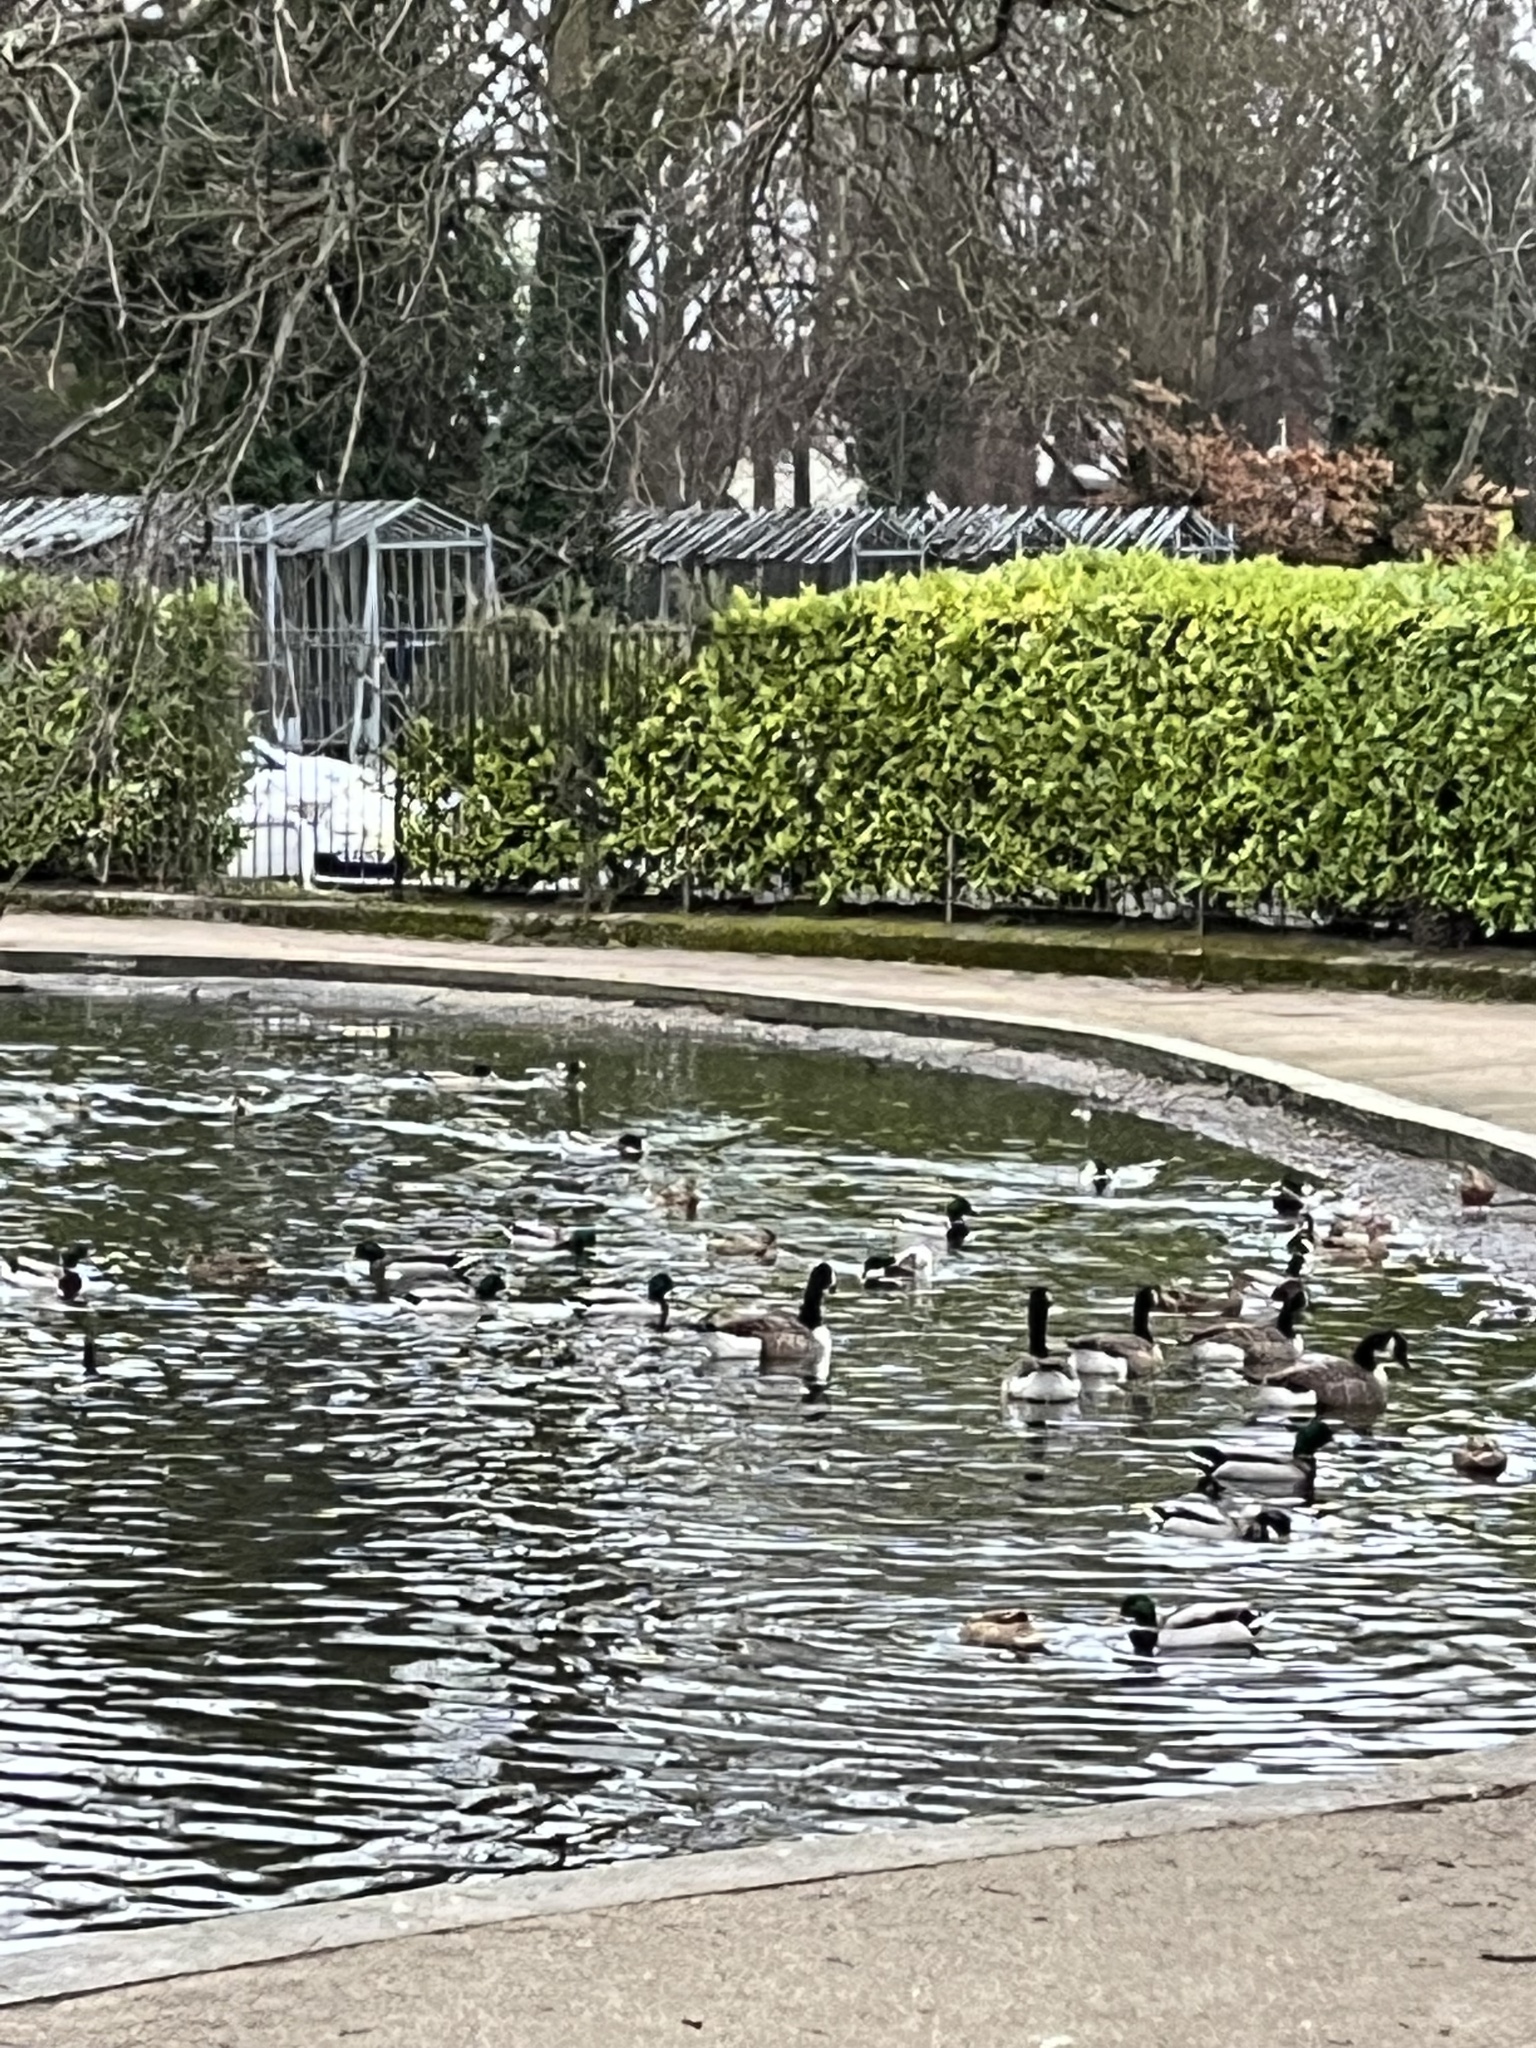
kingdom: Animalia
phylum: Chordata
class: Aves
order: Anseriformes
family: Anatidae
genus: Branta
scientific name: Branta canadensis
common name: Canada goose
